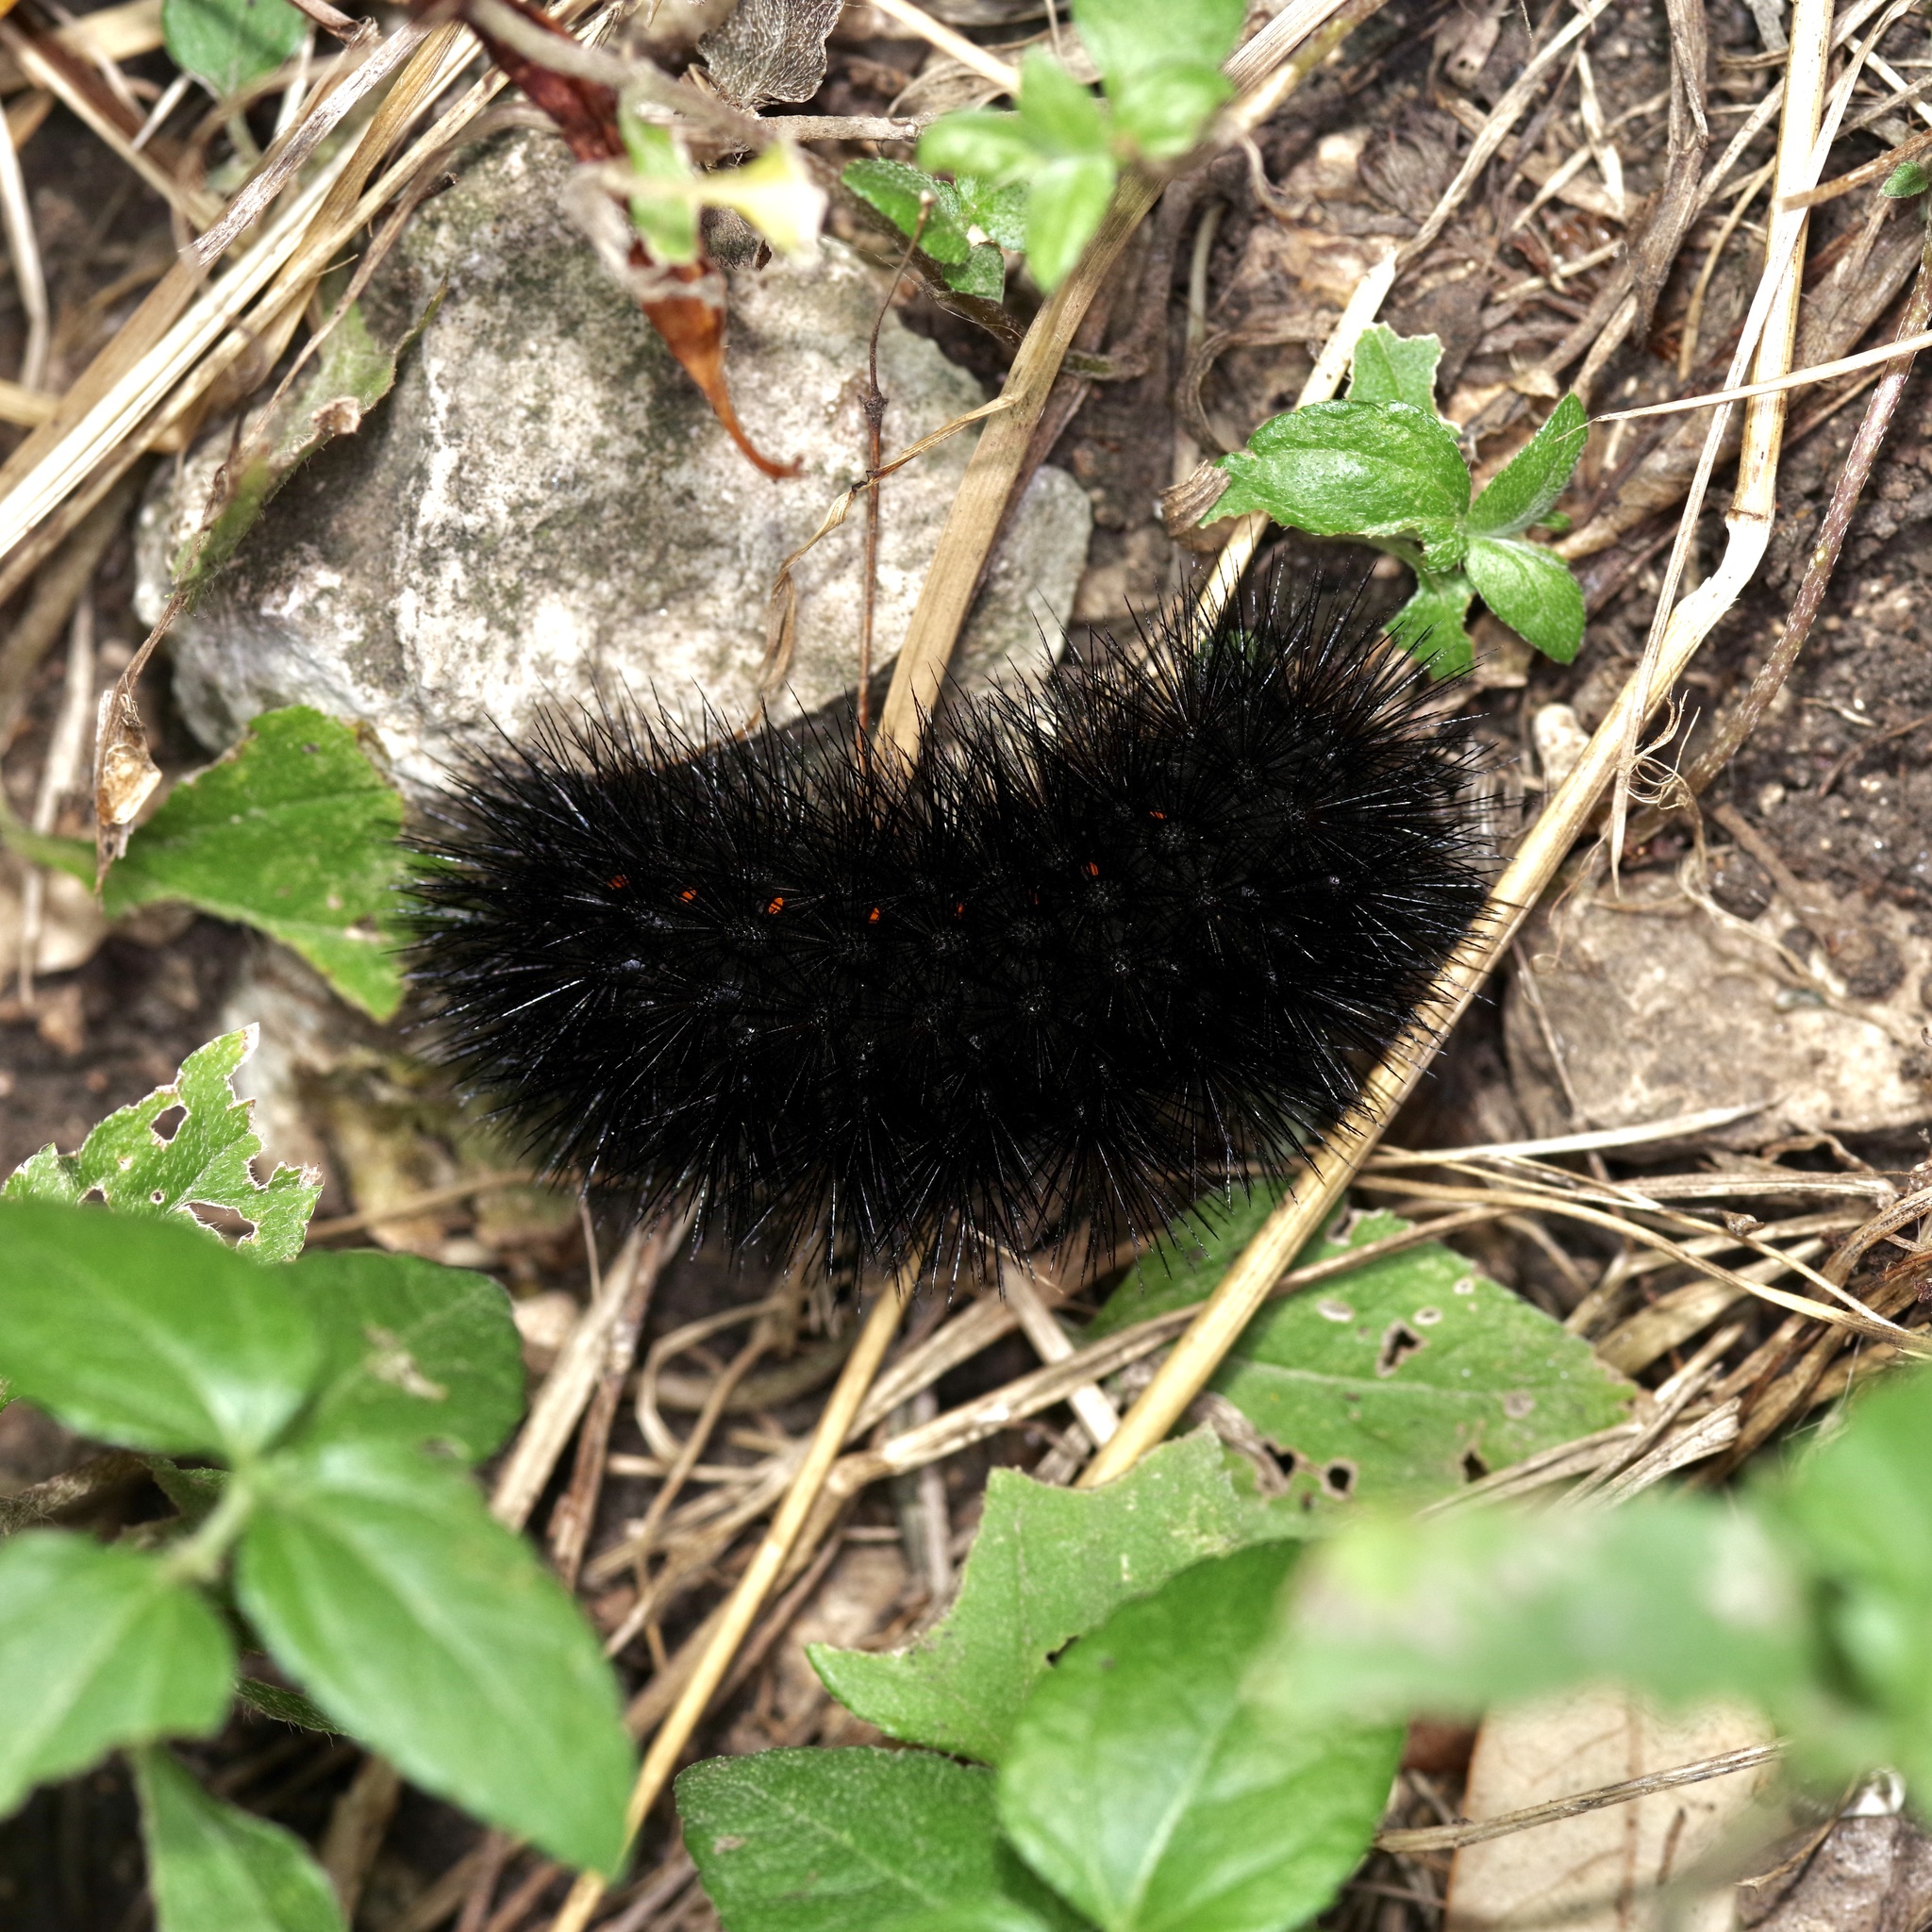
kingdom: Animalia
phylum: Arthropoda
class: Insecta
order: Lepidoptera
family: Erebidae
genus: Hypercompe
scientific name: Hypercompe scribonia
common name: Giant leopard moth
